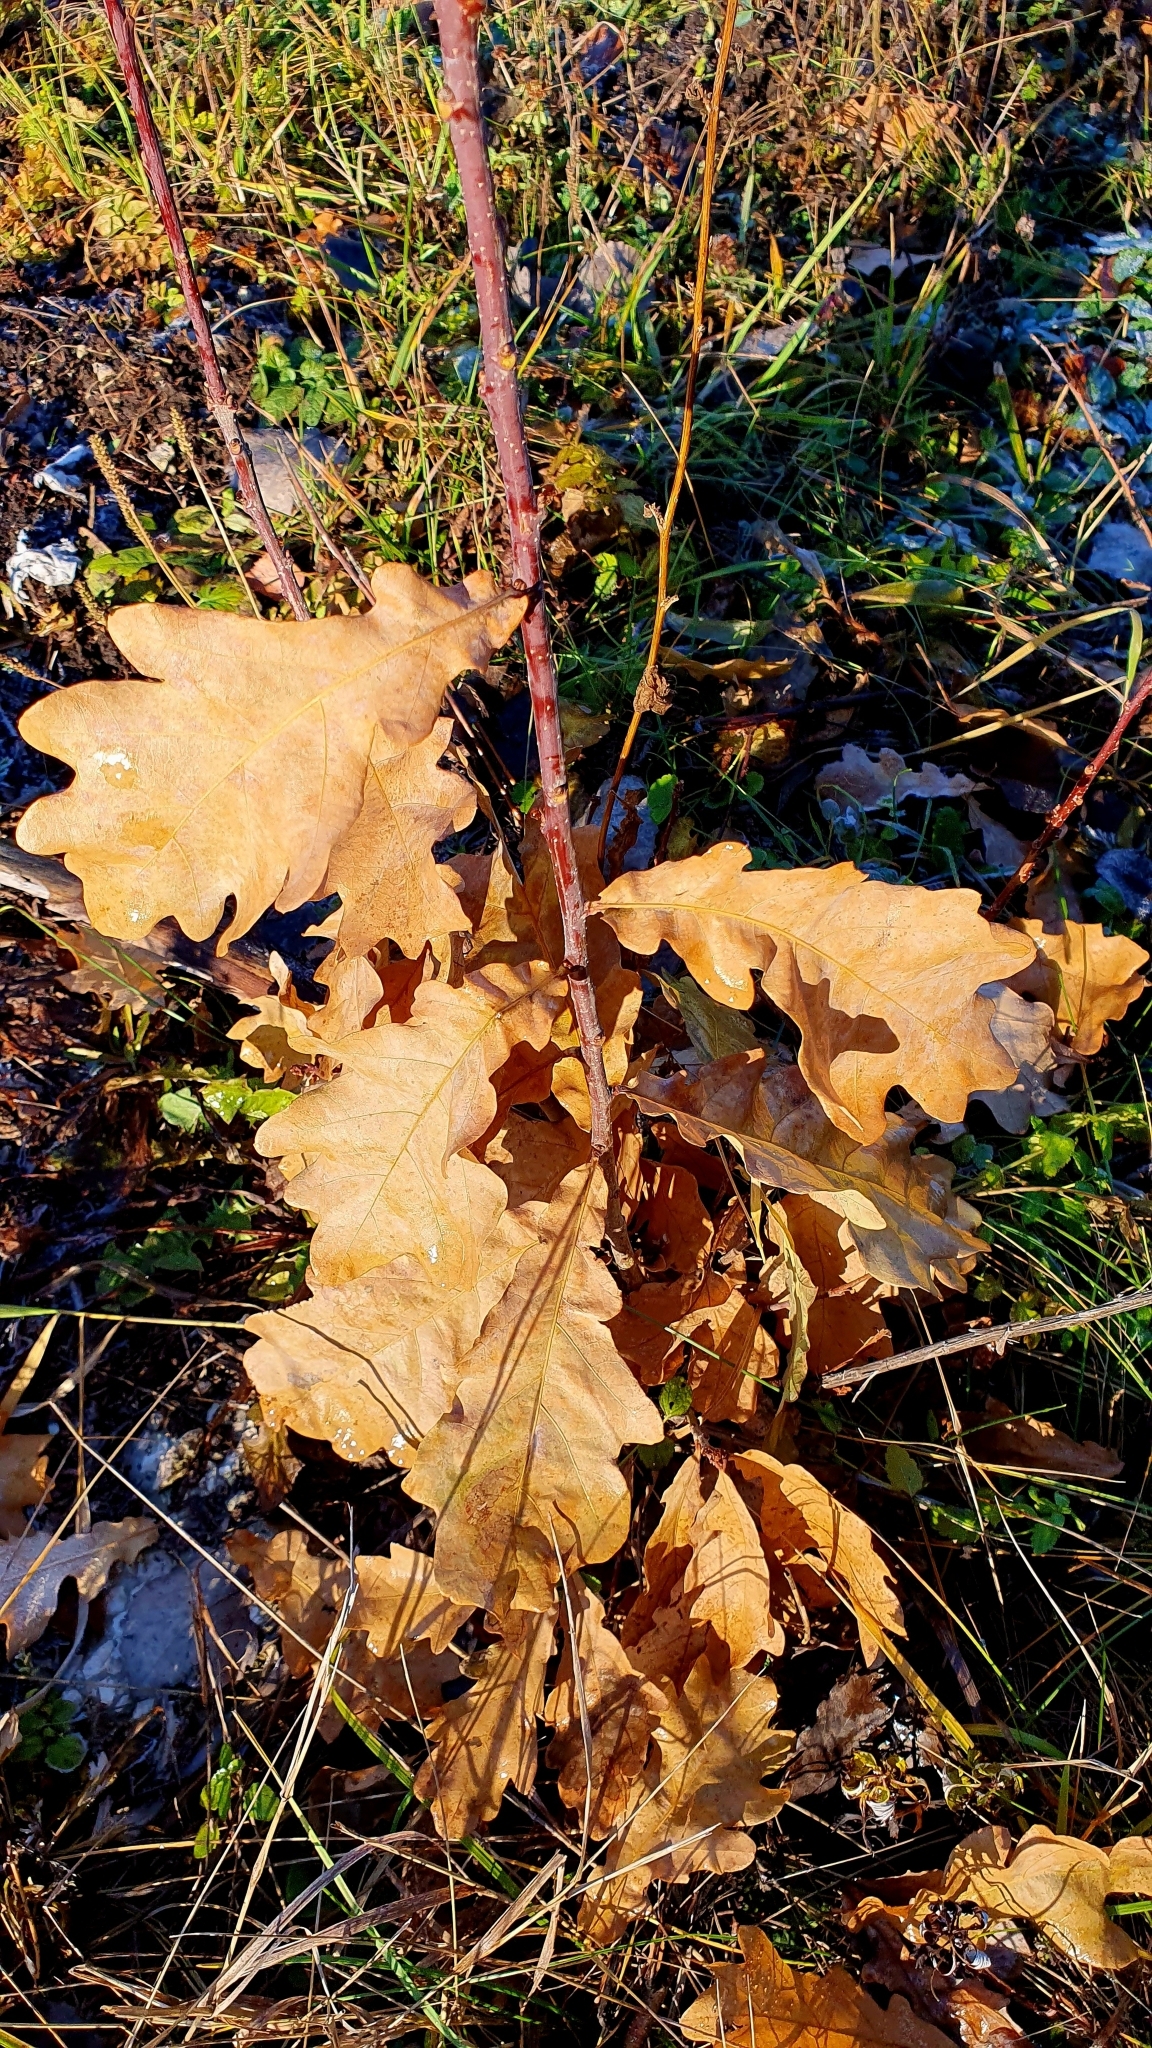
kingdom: Plantae
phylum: Tracheophyta
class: Magnoliopsida
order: Fagales
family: Fagaceae
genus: Quercus
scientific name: Quercus robur
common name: Pedunculate oak
